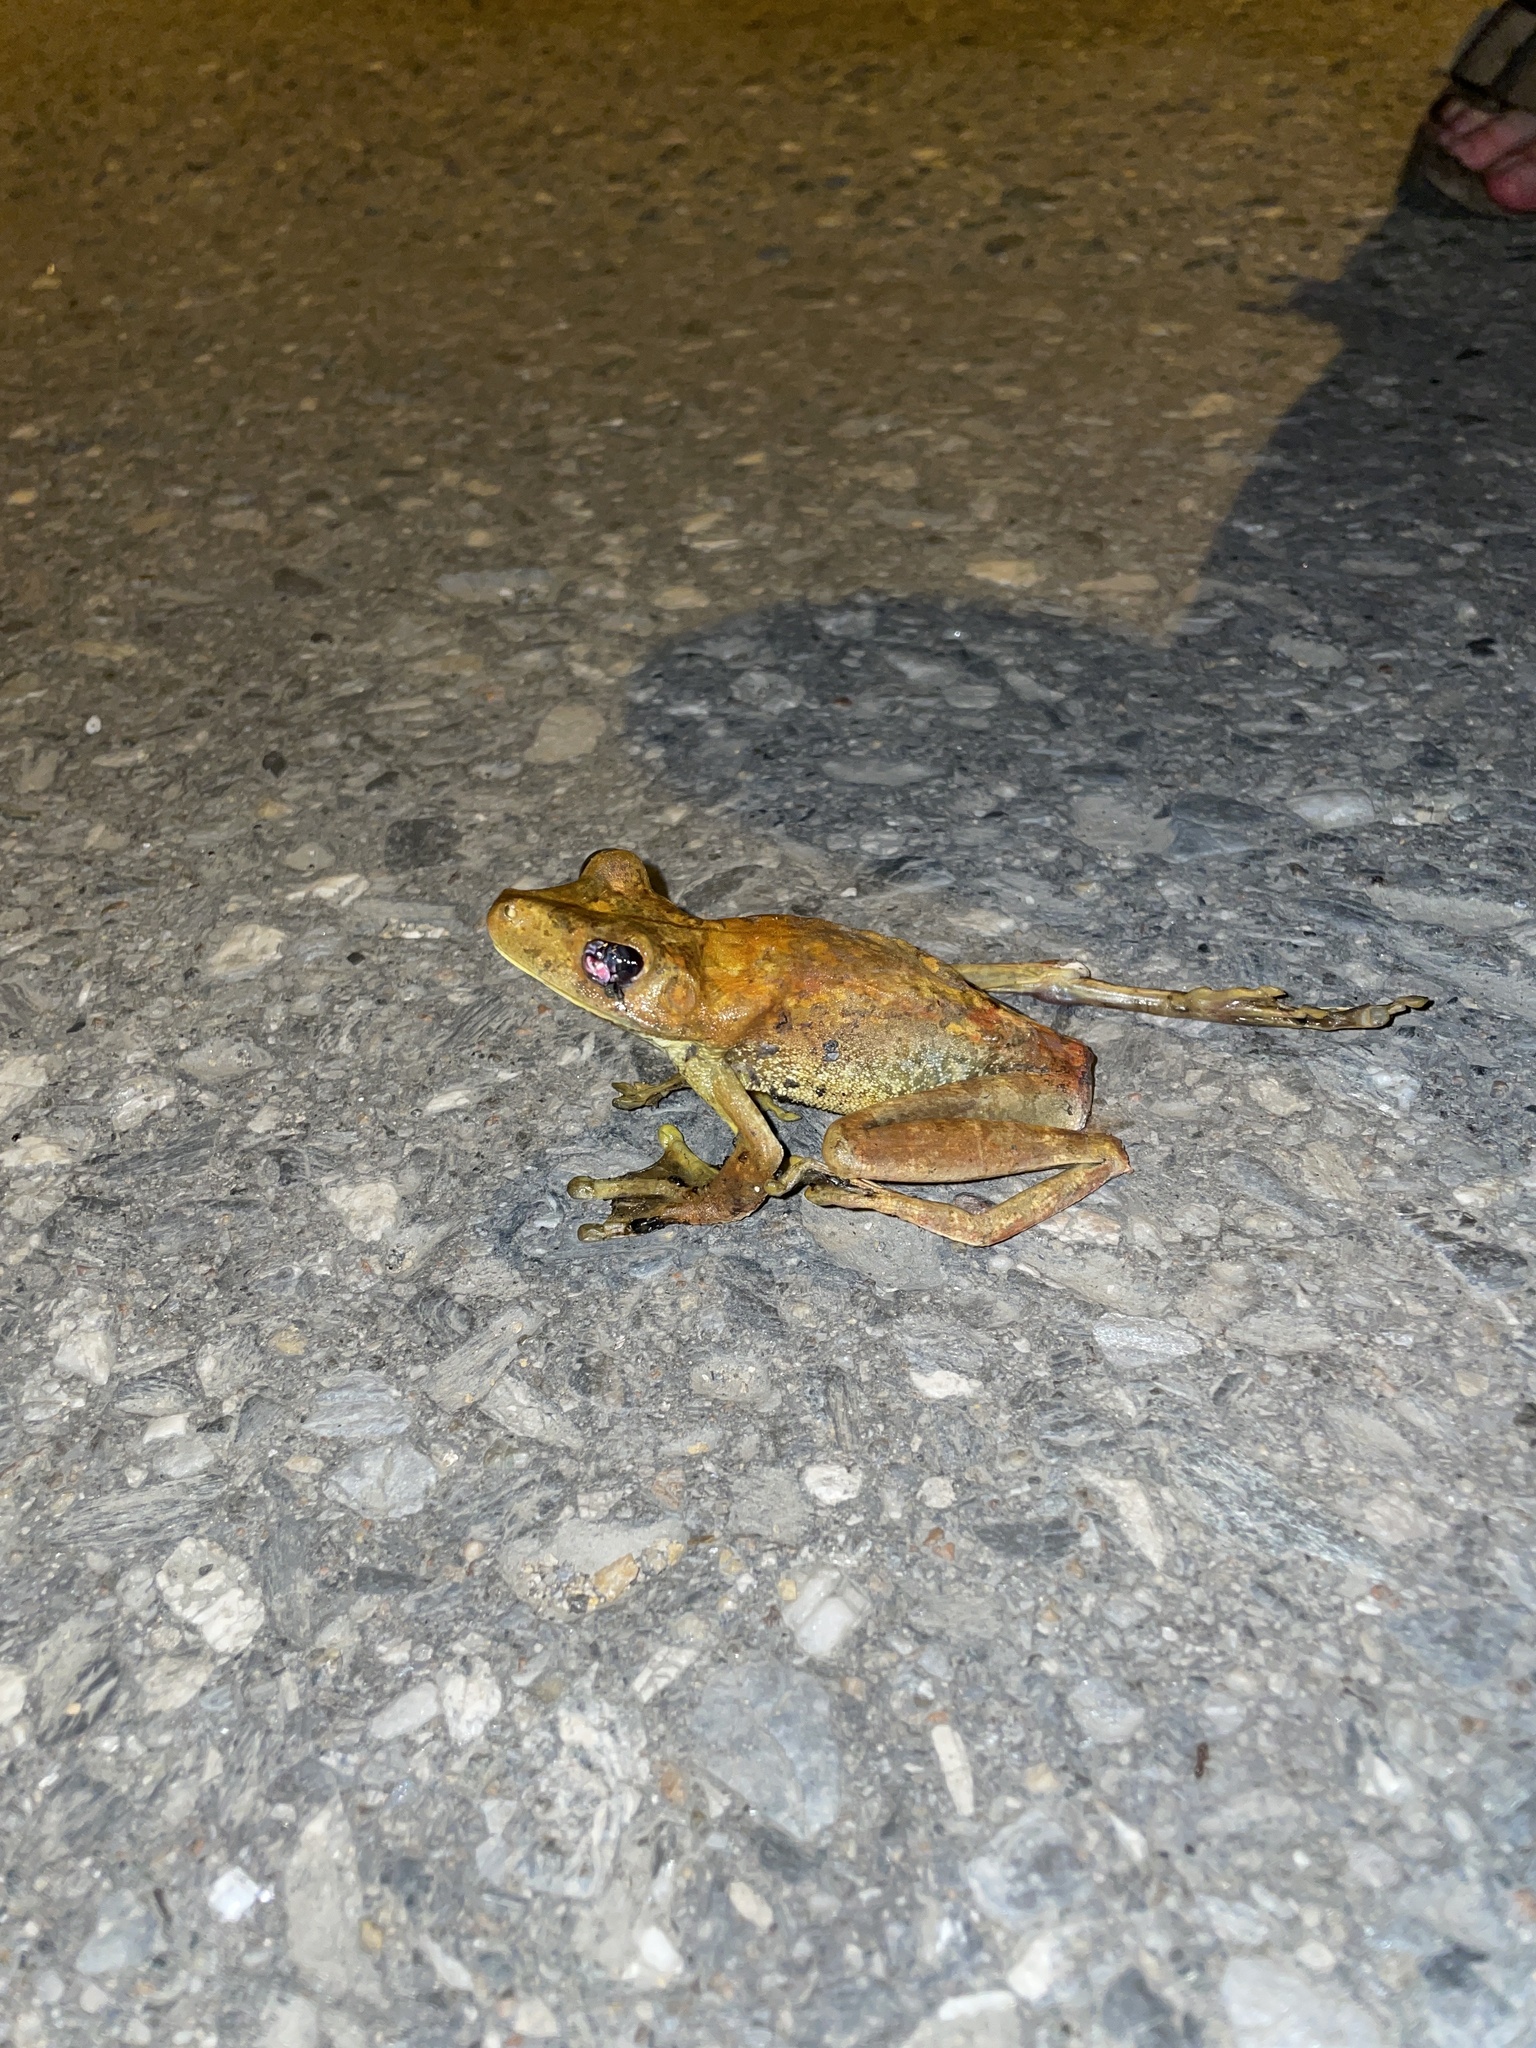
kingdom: Animalia
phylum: Chordata
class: Amphibia
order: Anura
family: Hylidae
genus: Boana
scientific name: Boana boans
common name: Giant gladiator treefrog
